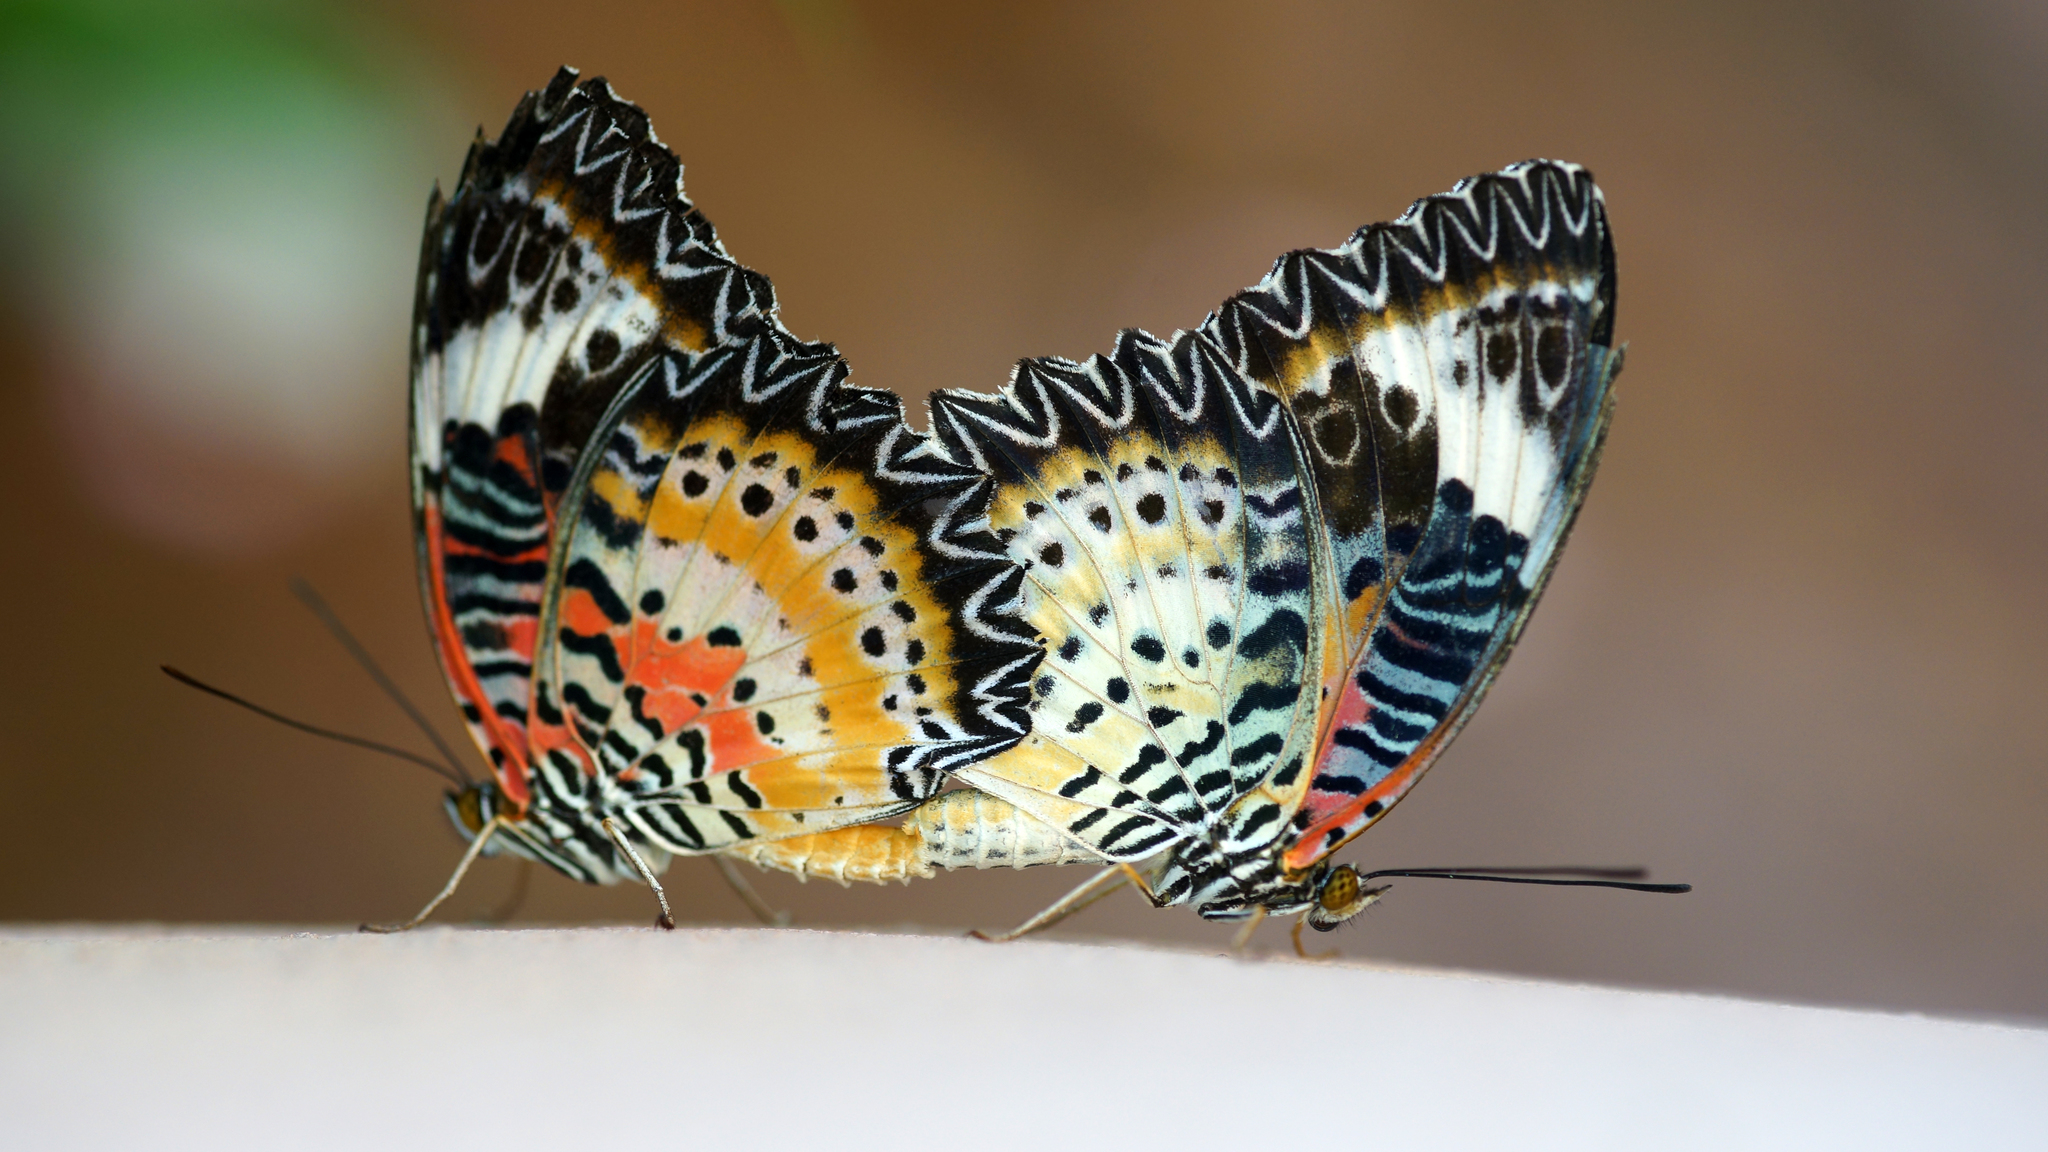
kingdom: Animalia
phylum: Arthropoda
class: Insecta
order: Lepidoptera
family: Nymphalidae
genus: Cethosia
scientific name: Cethosia cyane
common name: Leopard lacewing butterfly
